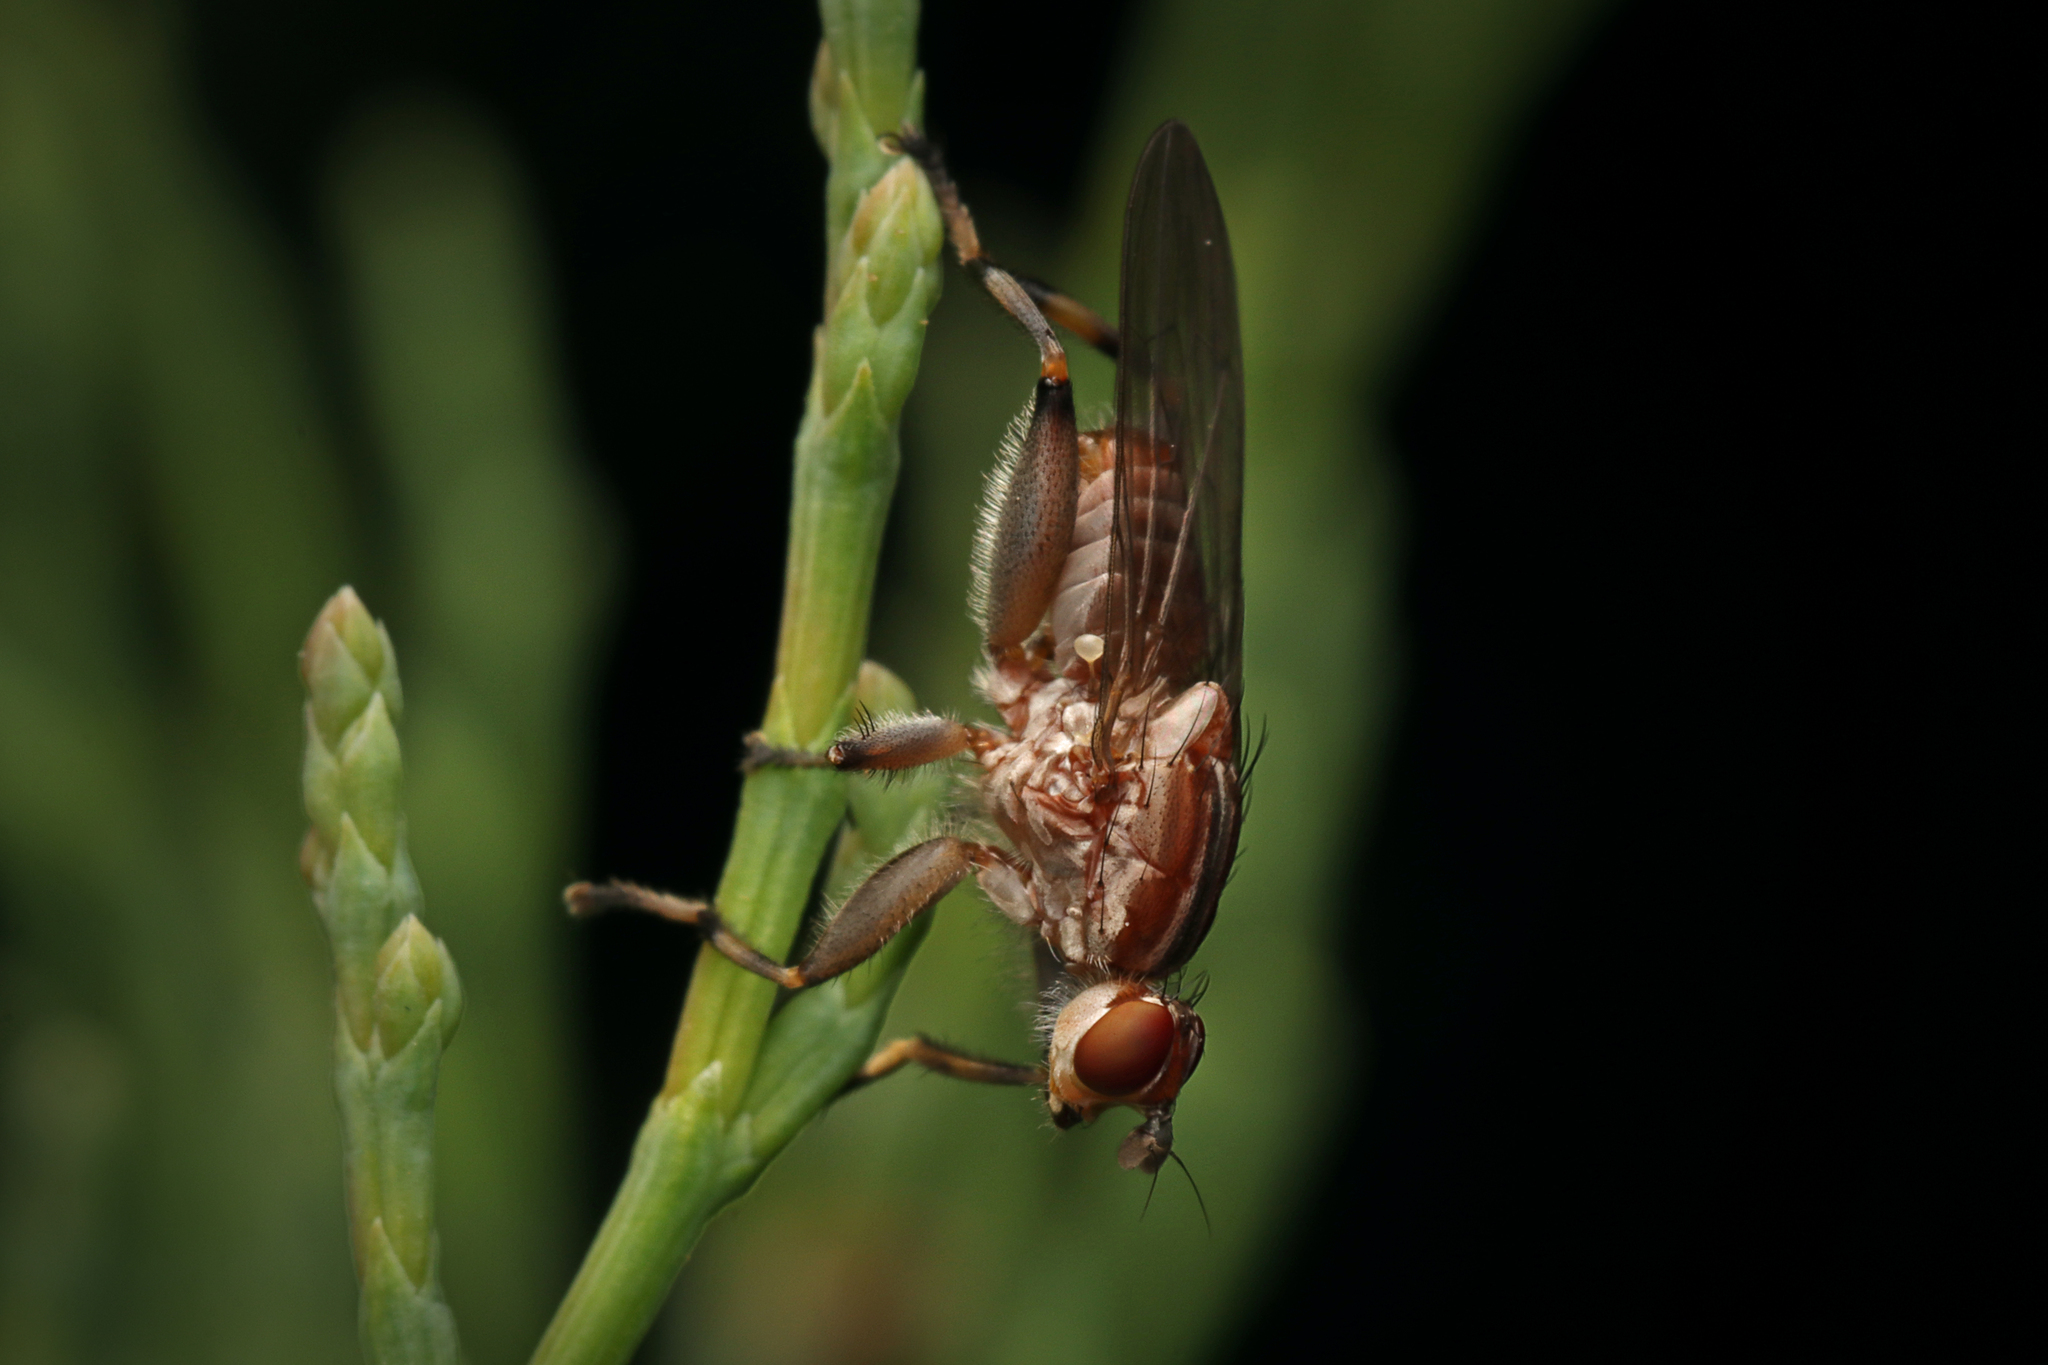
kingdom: Animalia
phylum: Arthropoda
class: Insecta
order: Diptera
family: Heleomyzidae
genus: Tapeigaster
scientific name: Tapeigaster nigricornis
